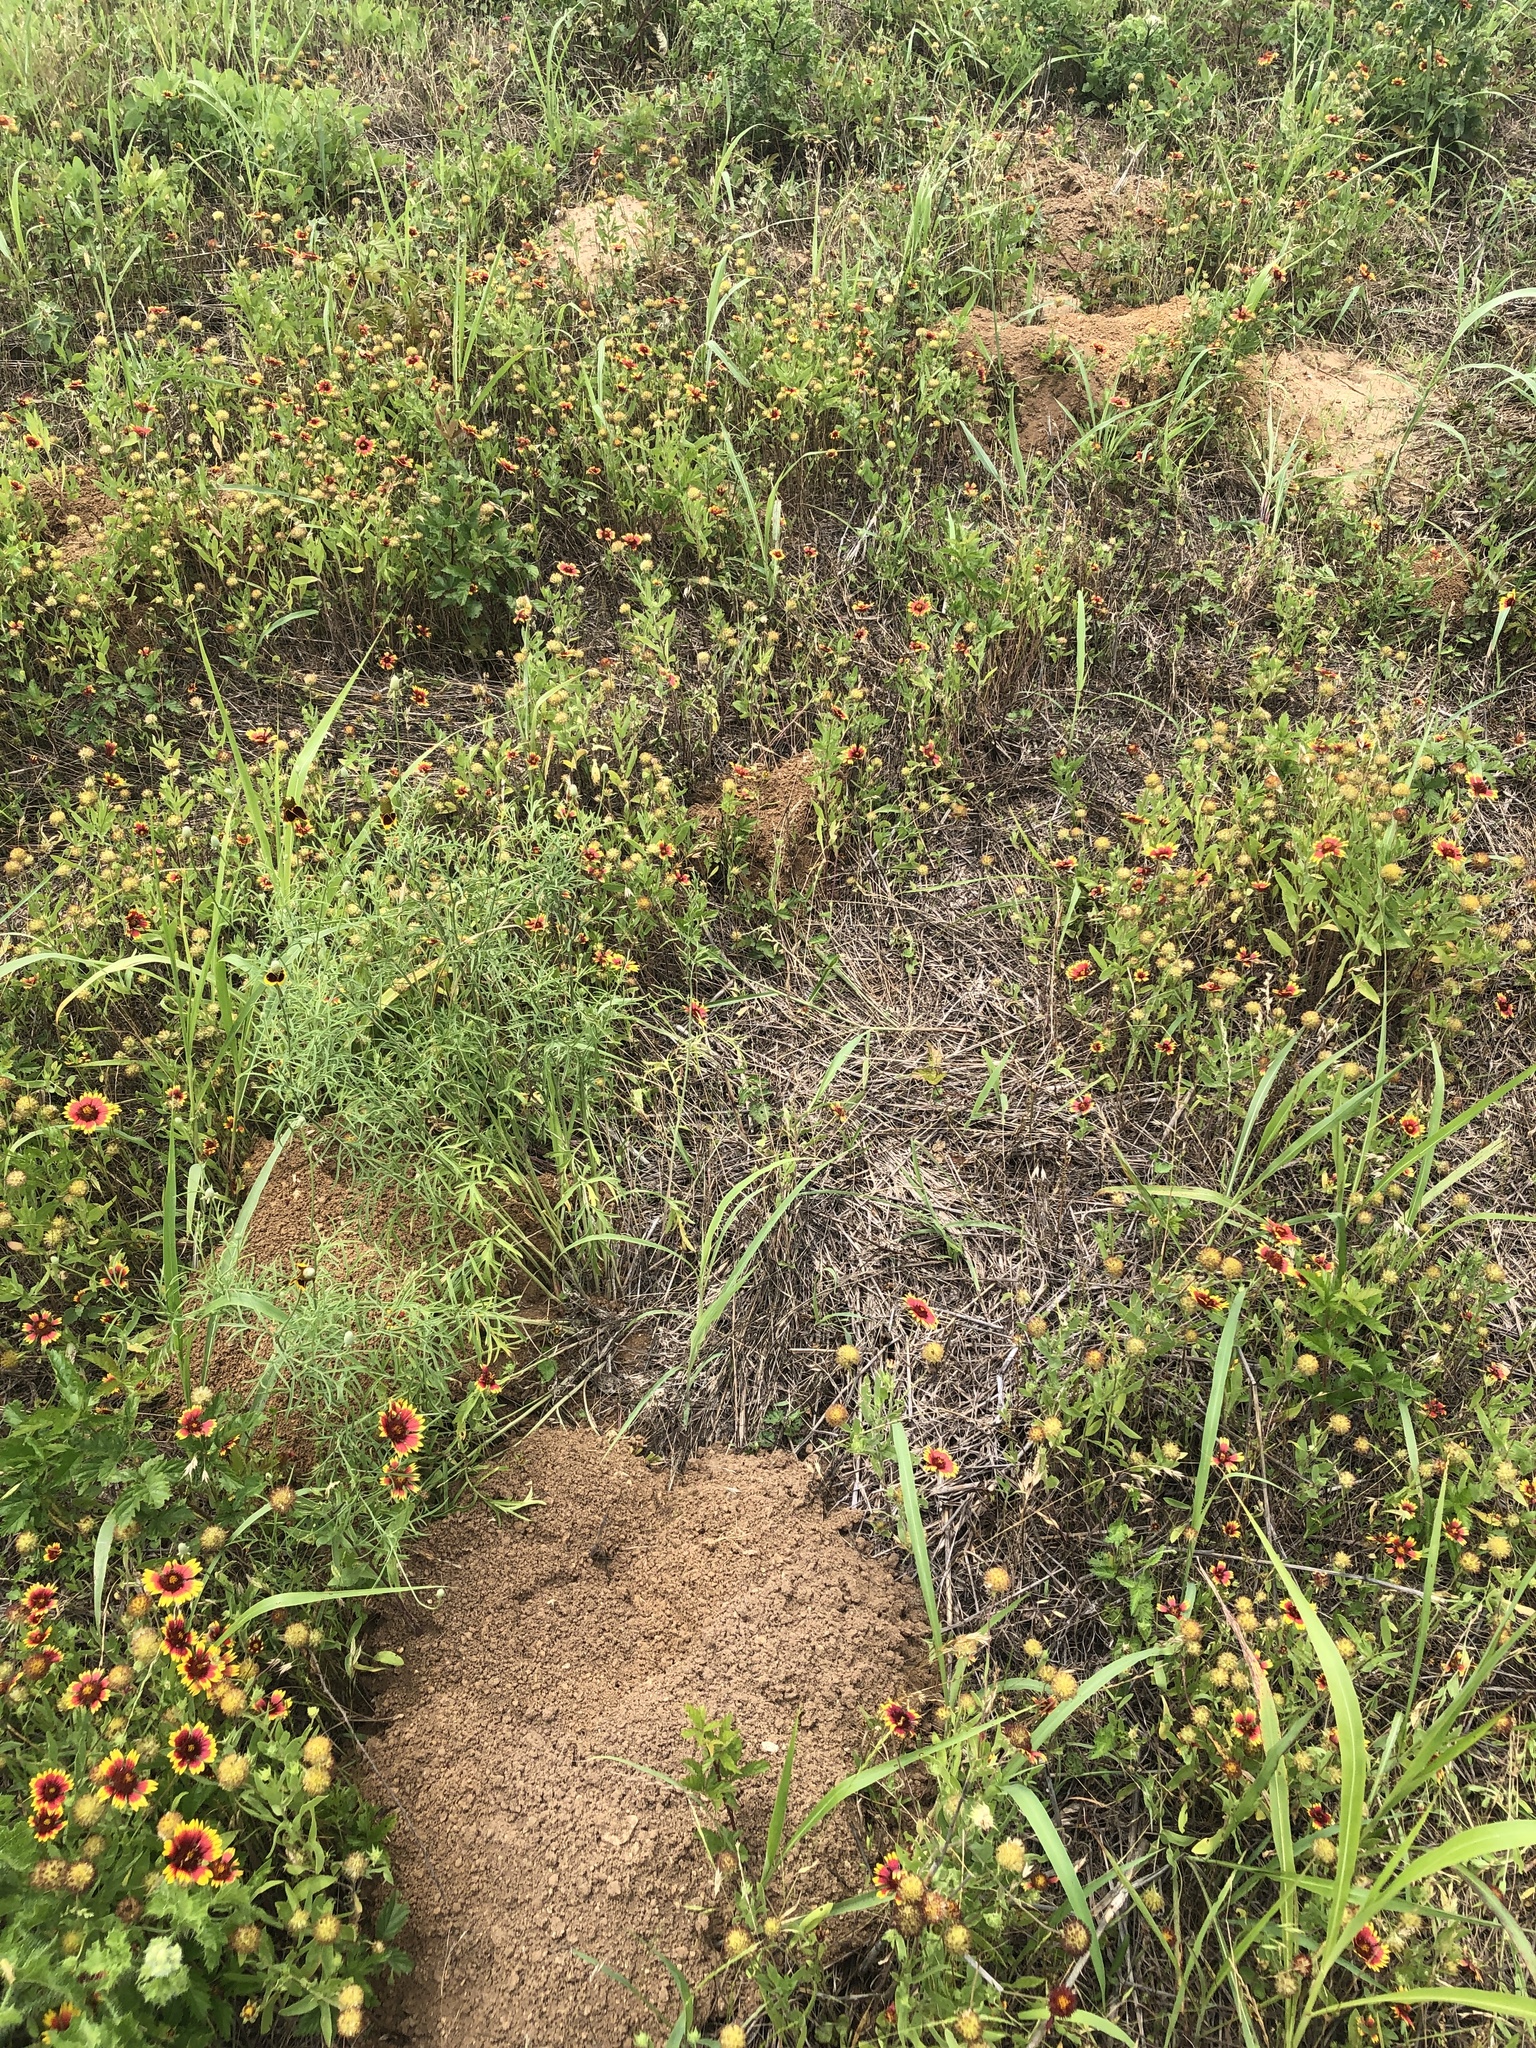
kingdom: Animalia
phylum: Chordata
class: Mammalia
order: Rodentia
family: Geomyidae
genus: Geomys
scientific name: Geomys attwateri
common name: Attwater's pocket gopher
